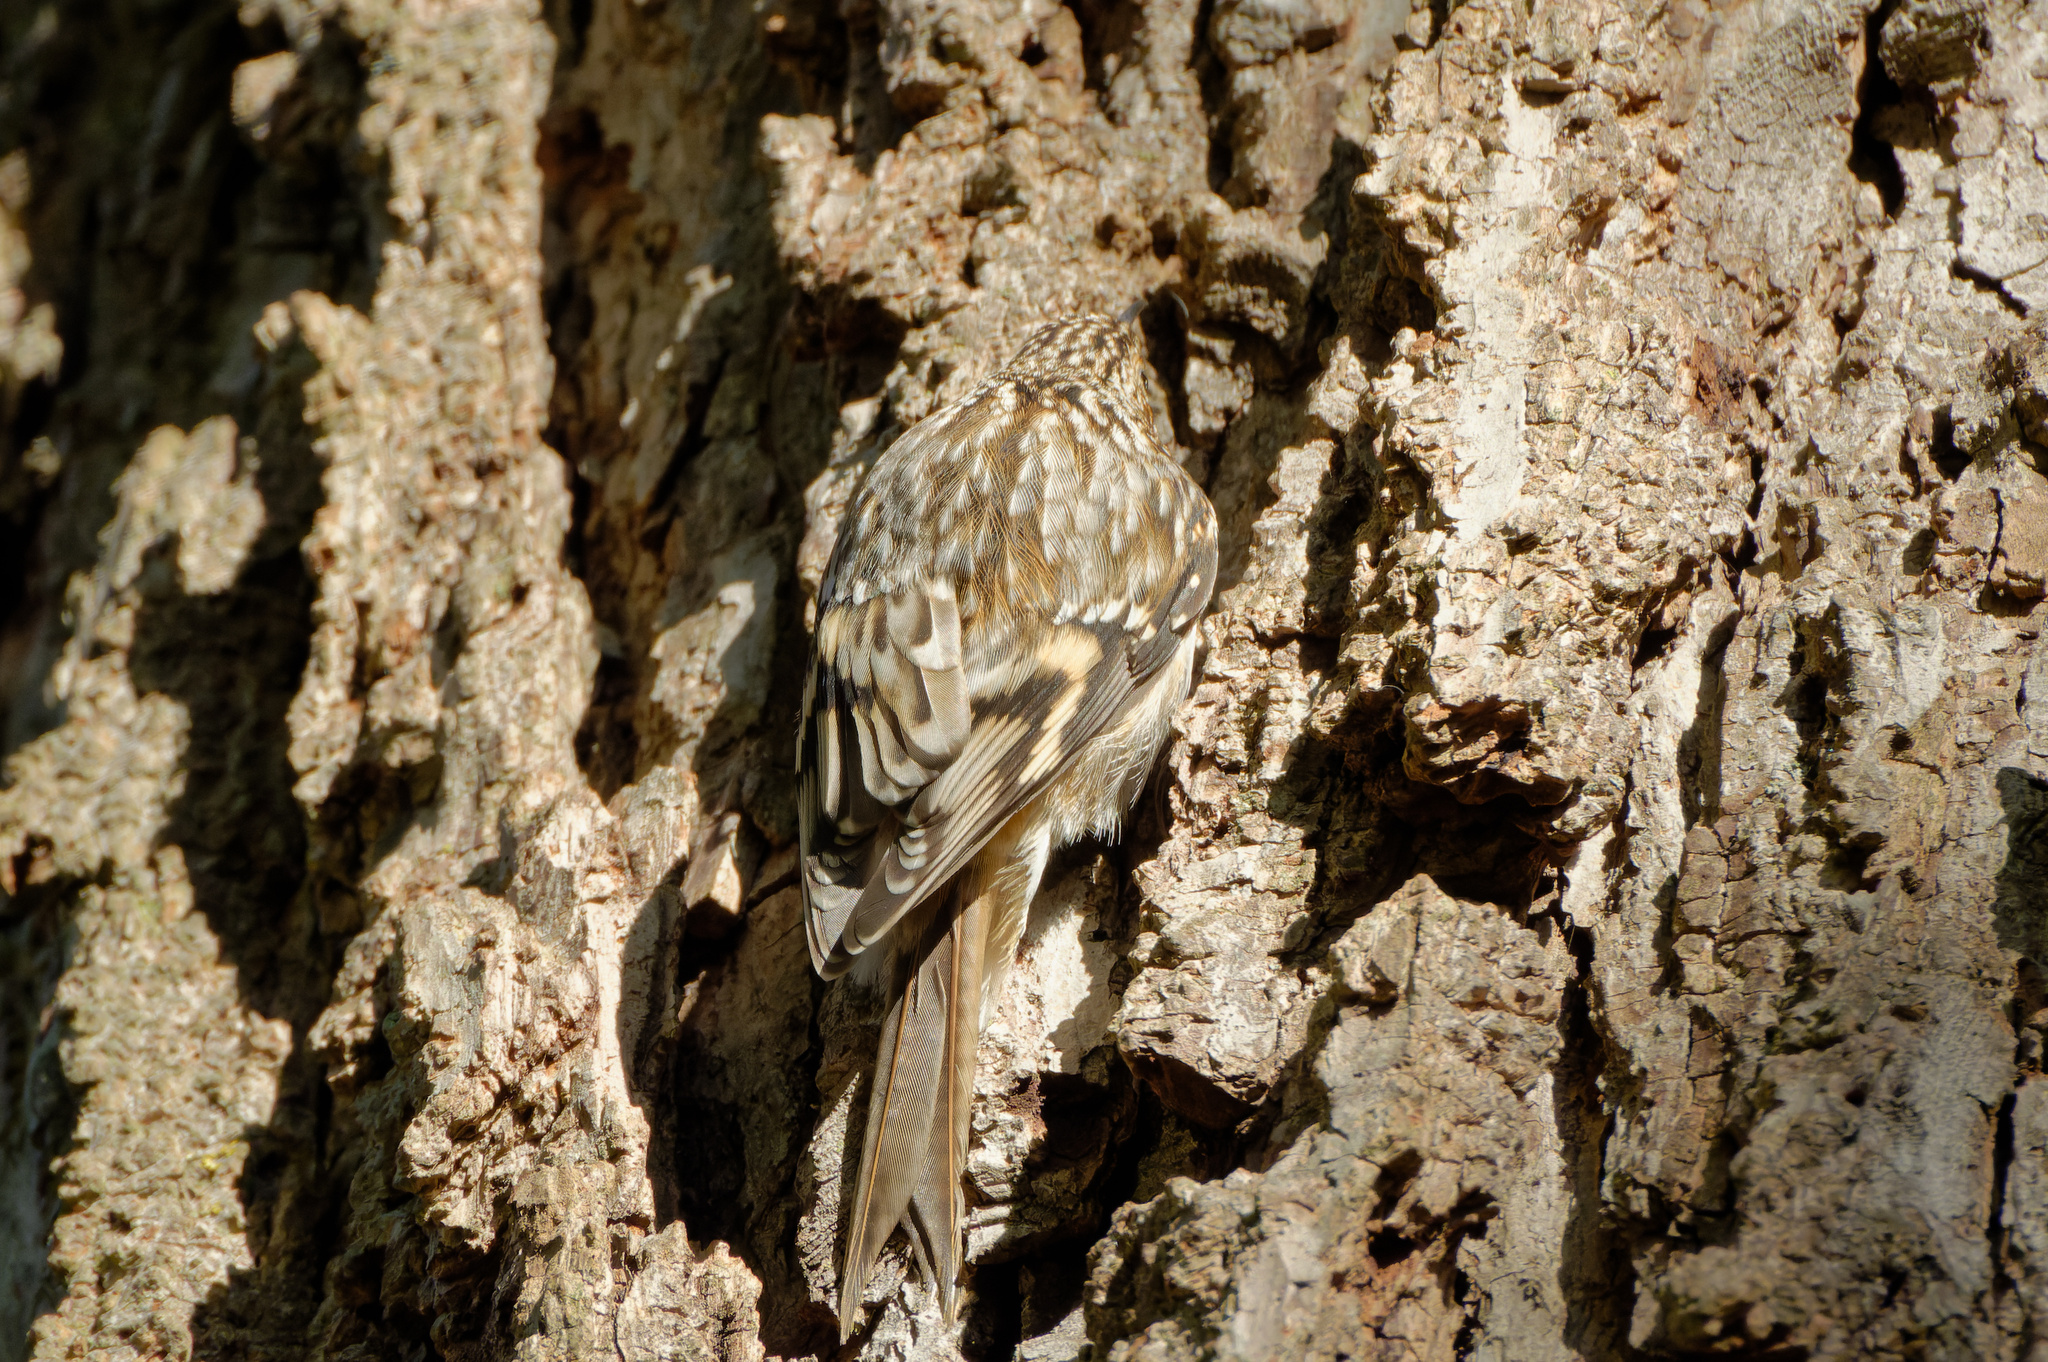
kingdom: Animalia
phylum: Chordata
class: Aves
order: Passeriformes
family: Certhiidae
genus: Certhia
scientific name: Certhia americana
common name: Brown creeper
